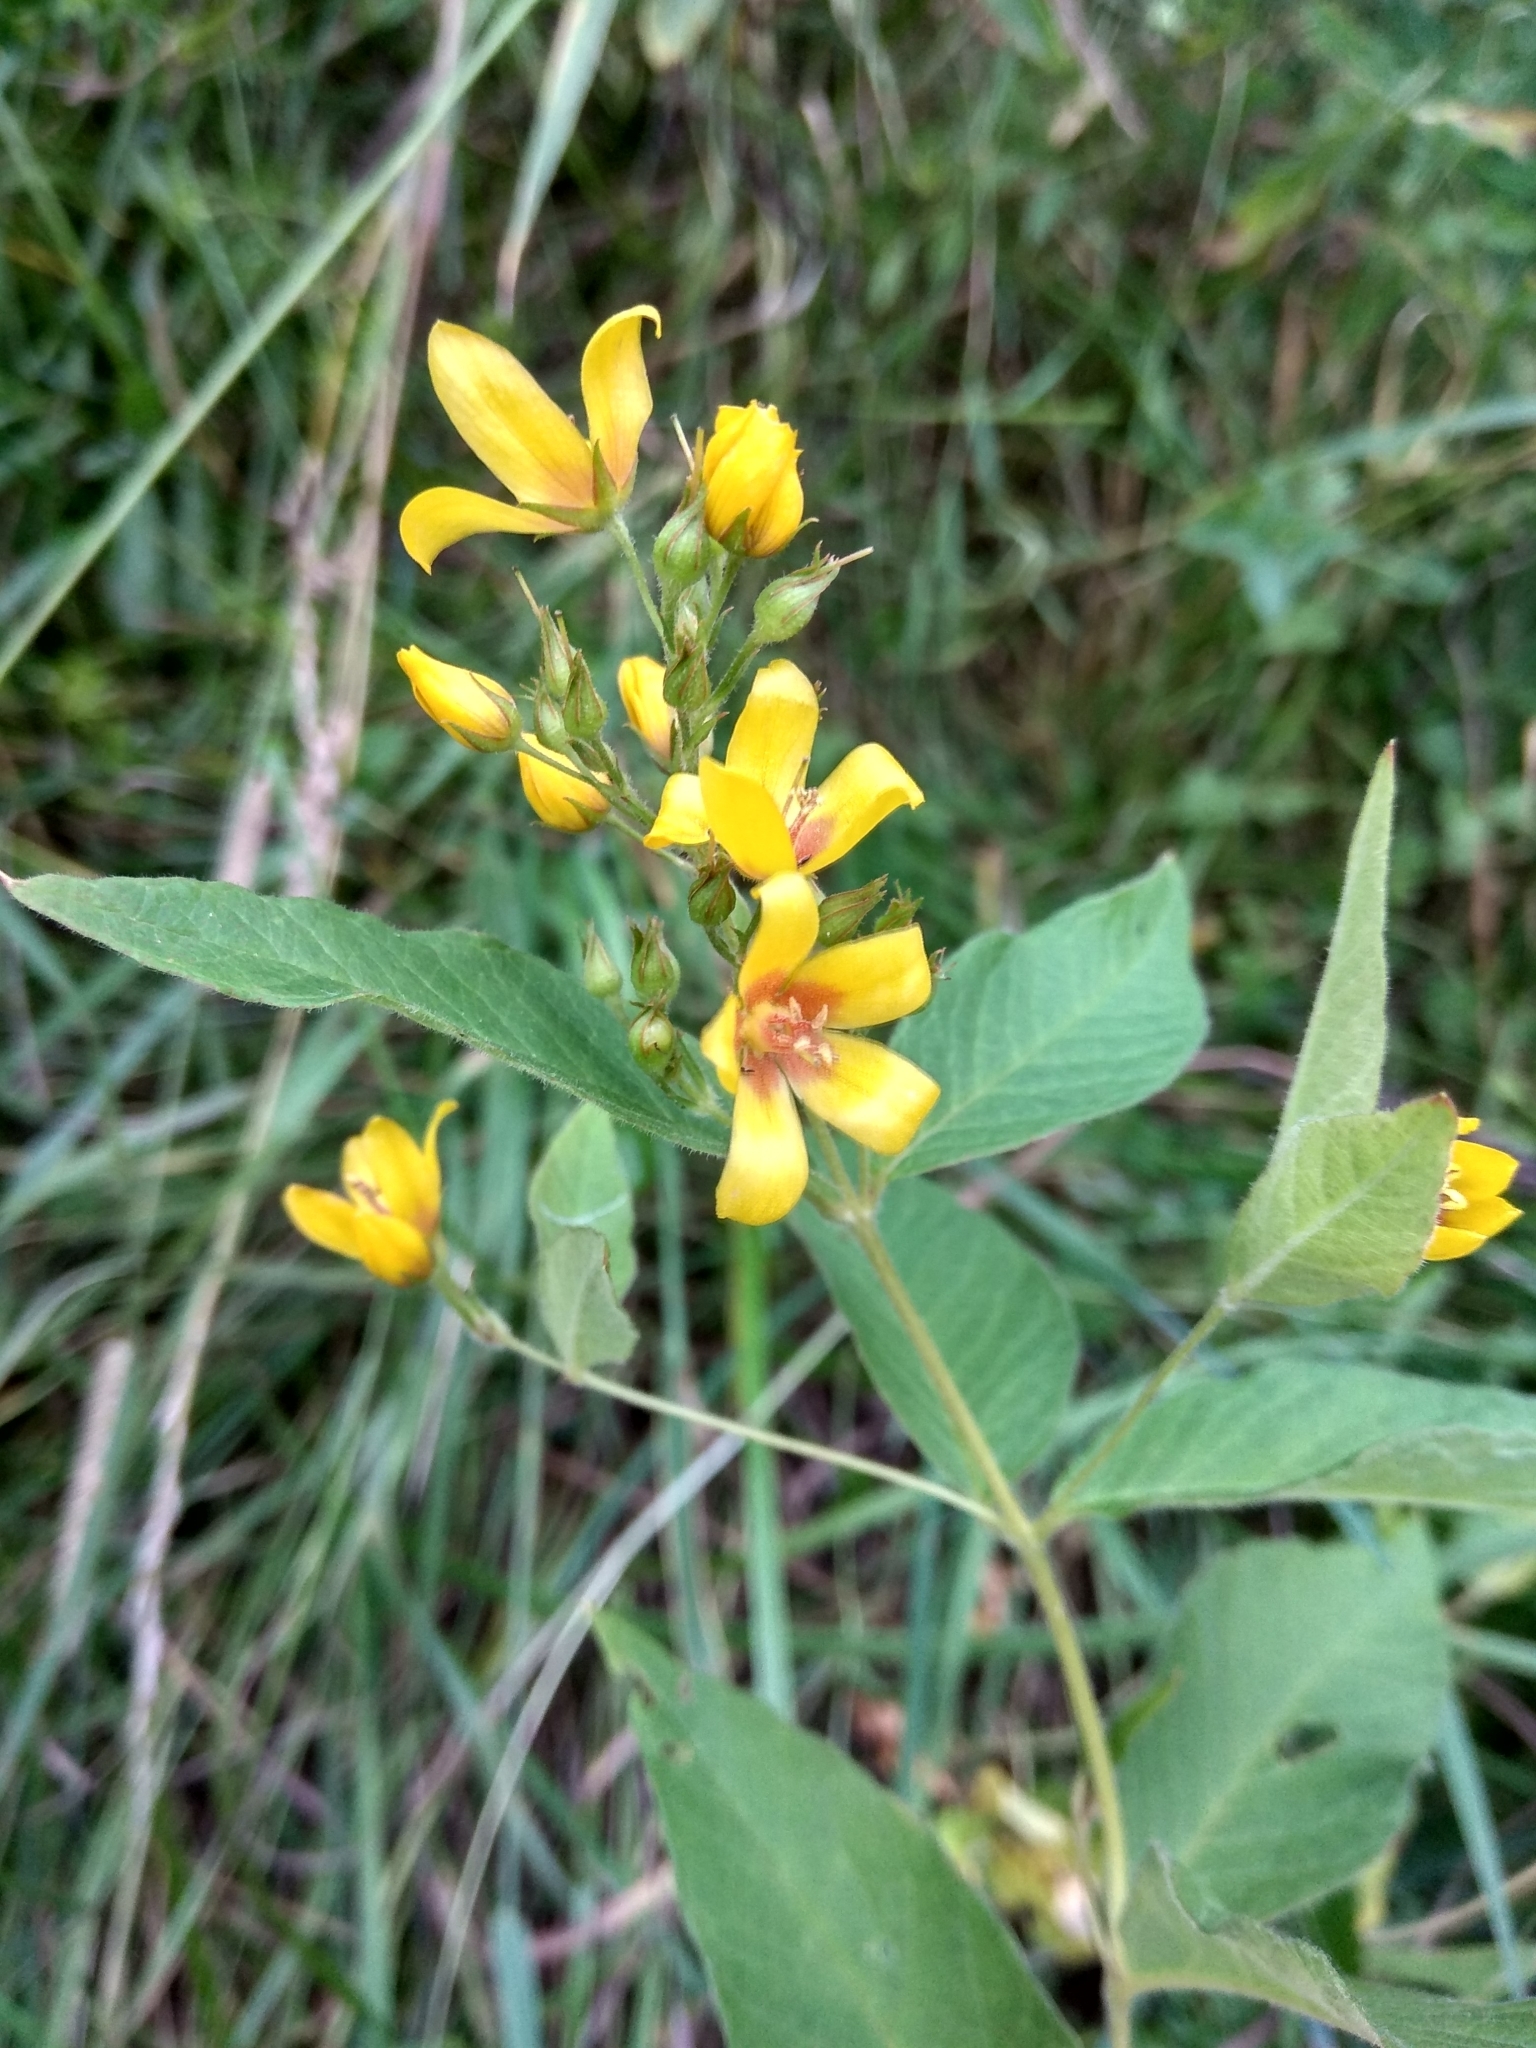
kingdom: Plantae
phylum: Tracheophyta
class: Magnoliopsida
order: Ericales
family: Primulaceae
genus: Lysimachia
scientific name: Lysimachia vulgaris
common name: Yellow loosestrife
